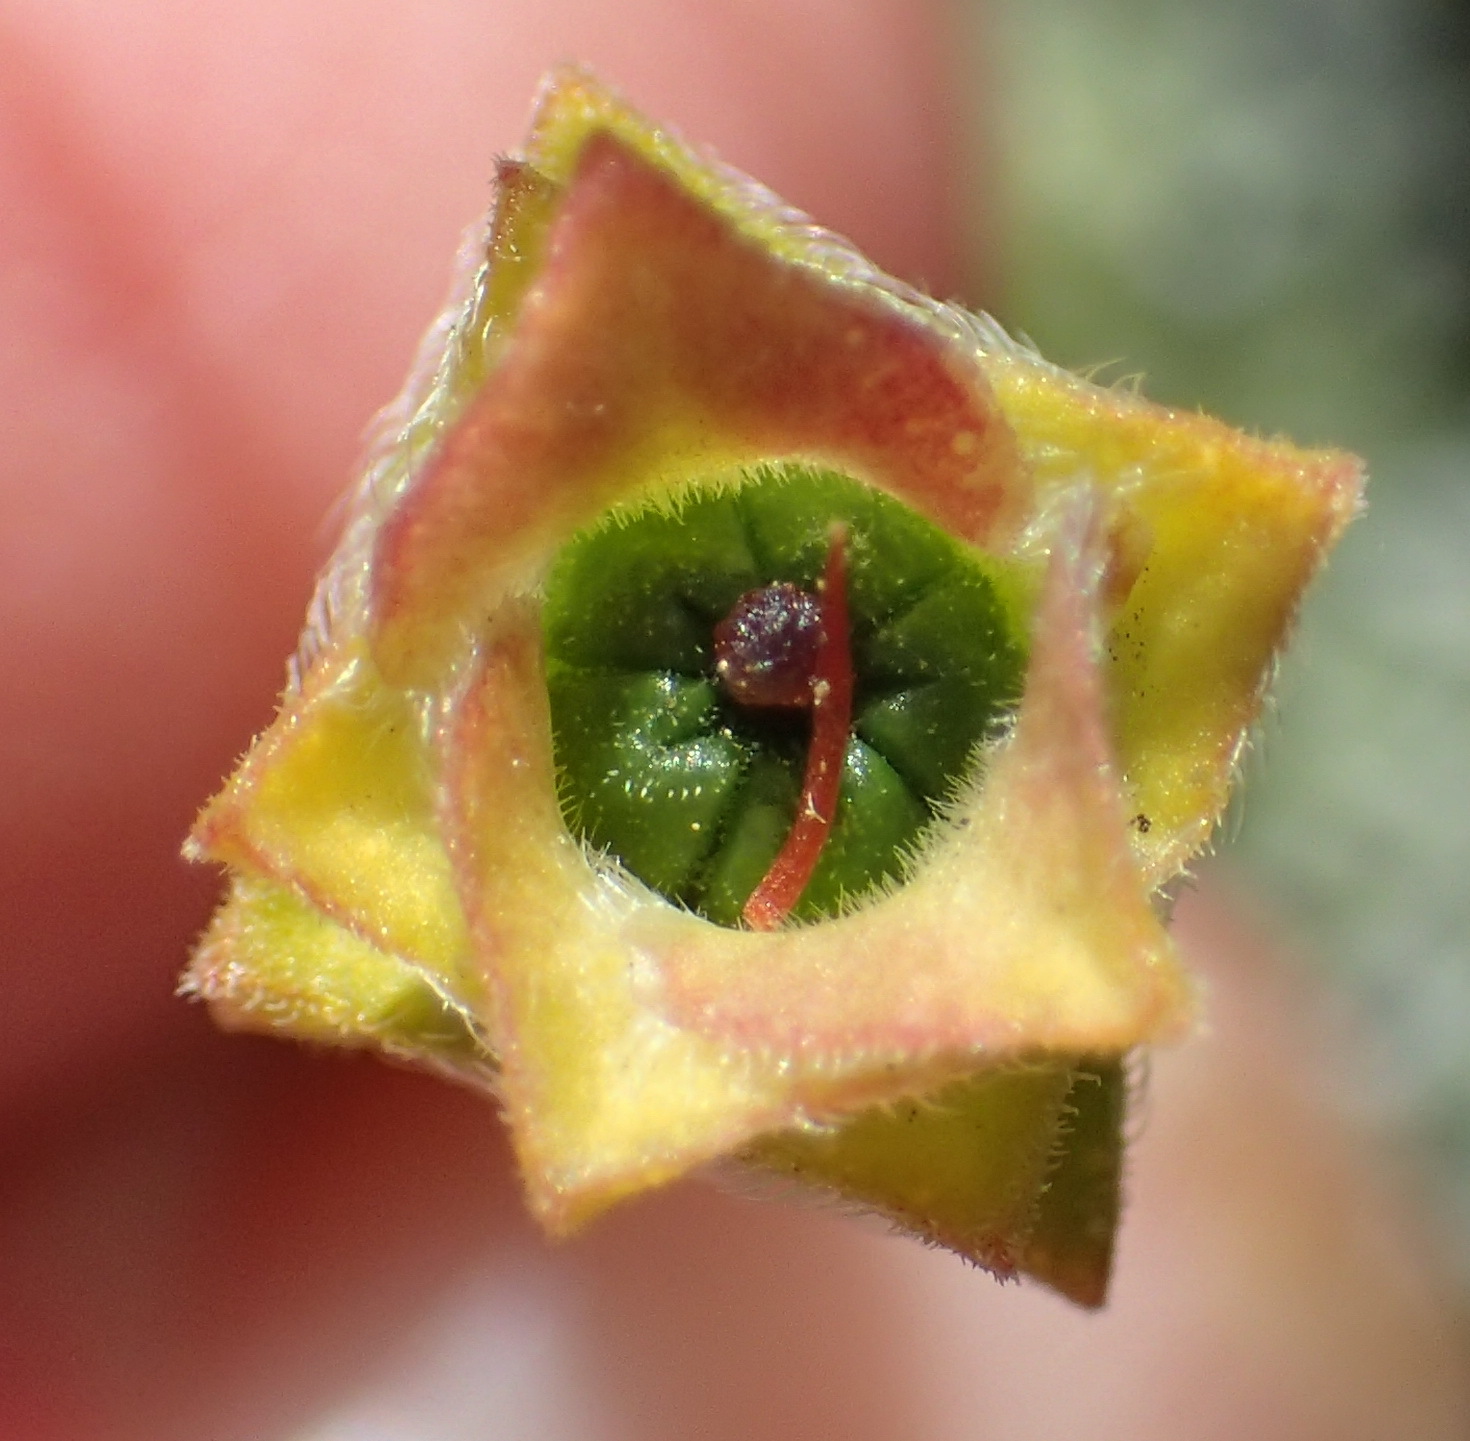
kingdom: Plantae
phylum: Tracheophyta
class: Magnoliopsida
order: Sapindales
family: Rutaceae
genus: Acmadenia
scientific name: Acmadenia tetragona
